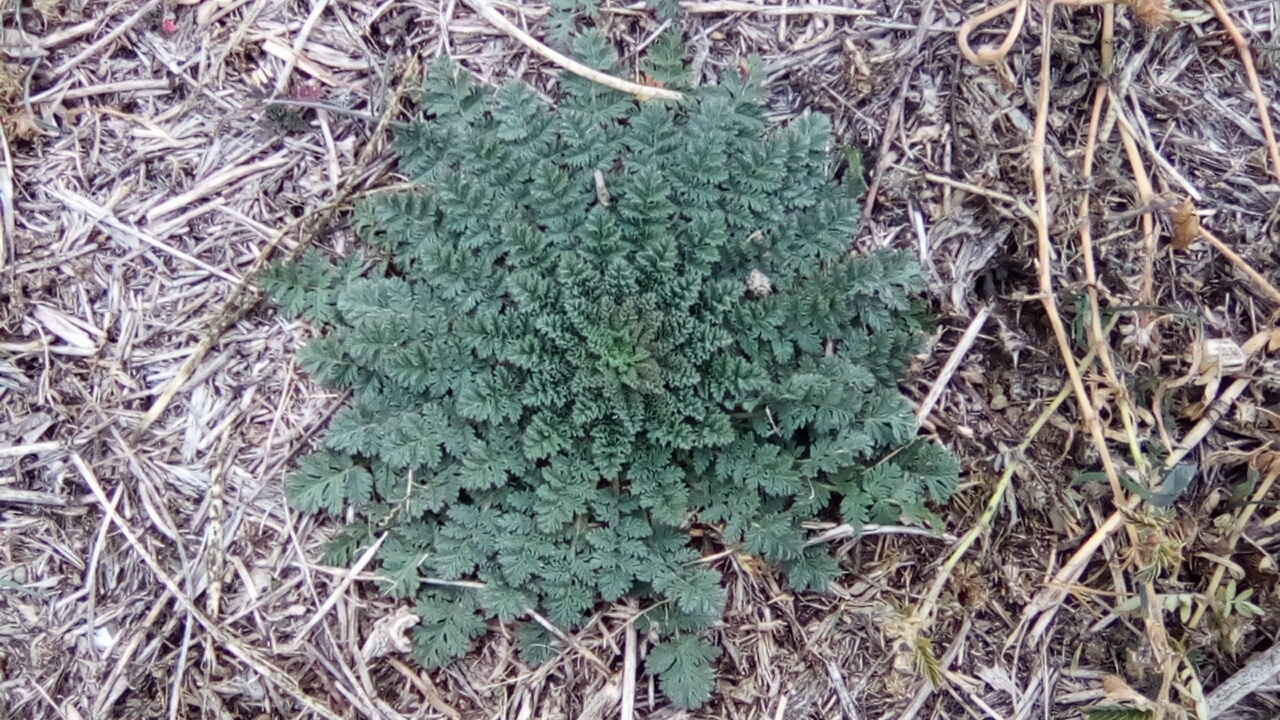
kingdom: Plantae
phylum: Tracheophyta
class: Magnoliopsida
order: Geraniales
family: Geraniaceae
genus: Erodium
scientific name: Erodium cicutarium
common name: Common stork's-bill
